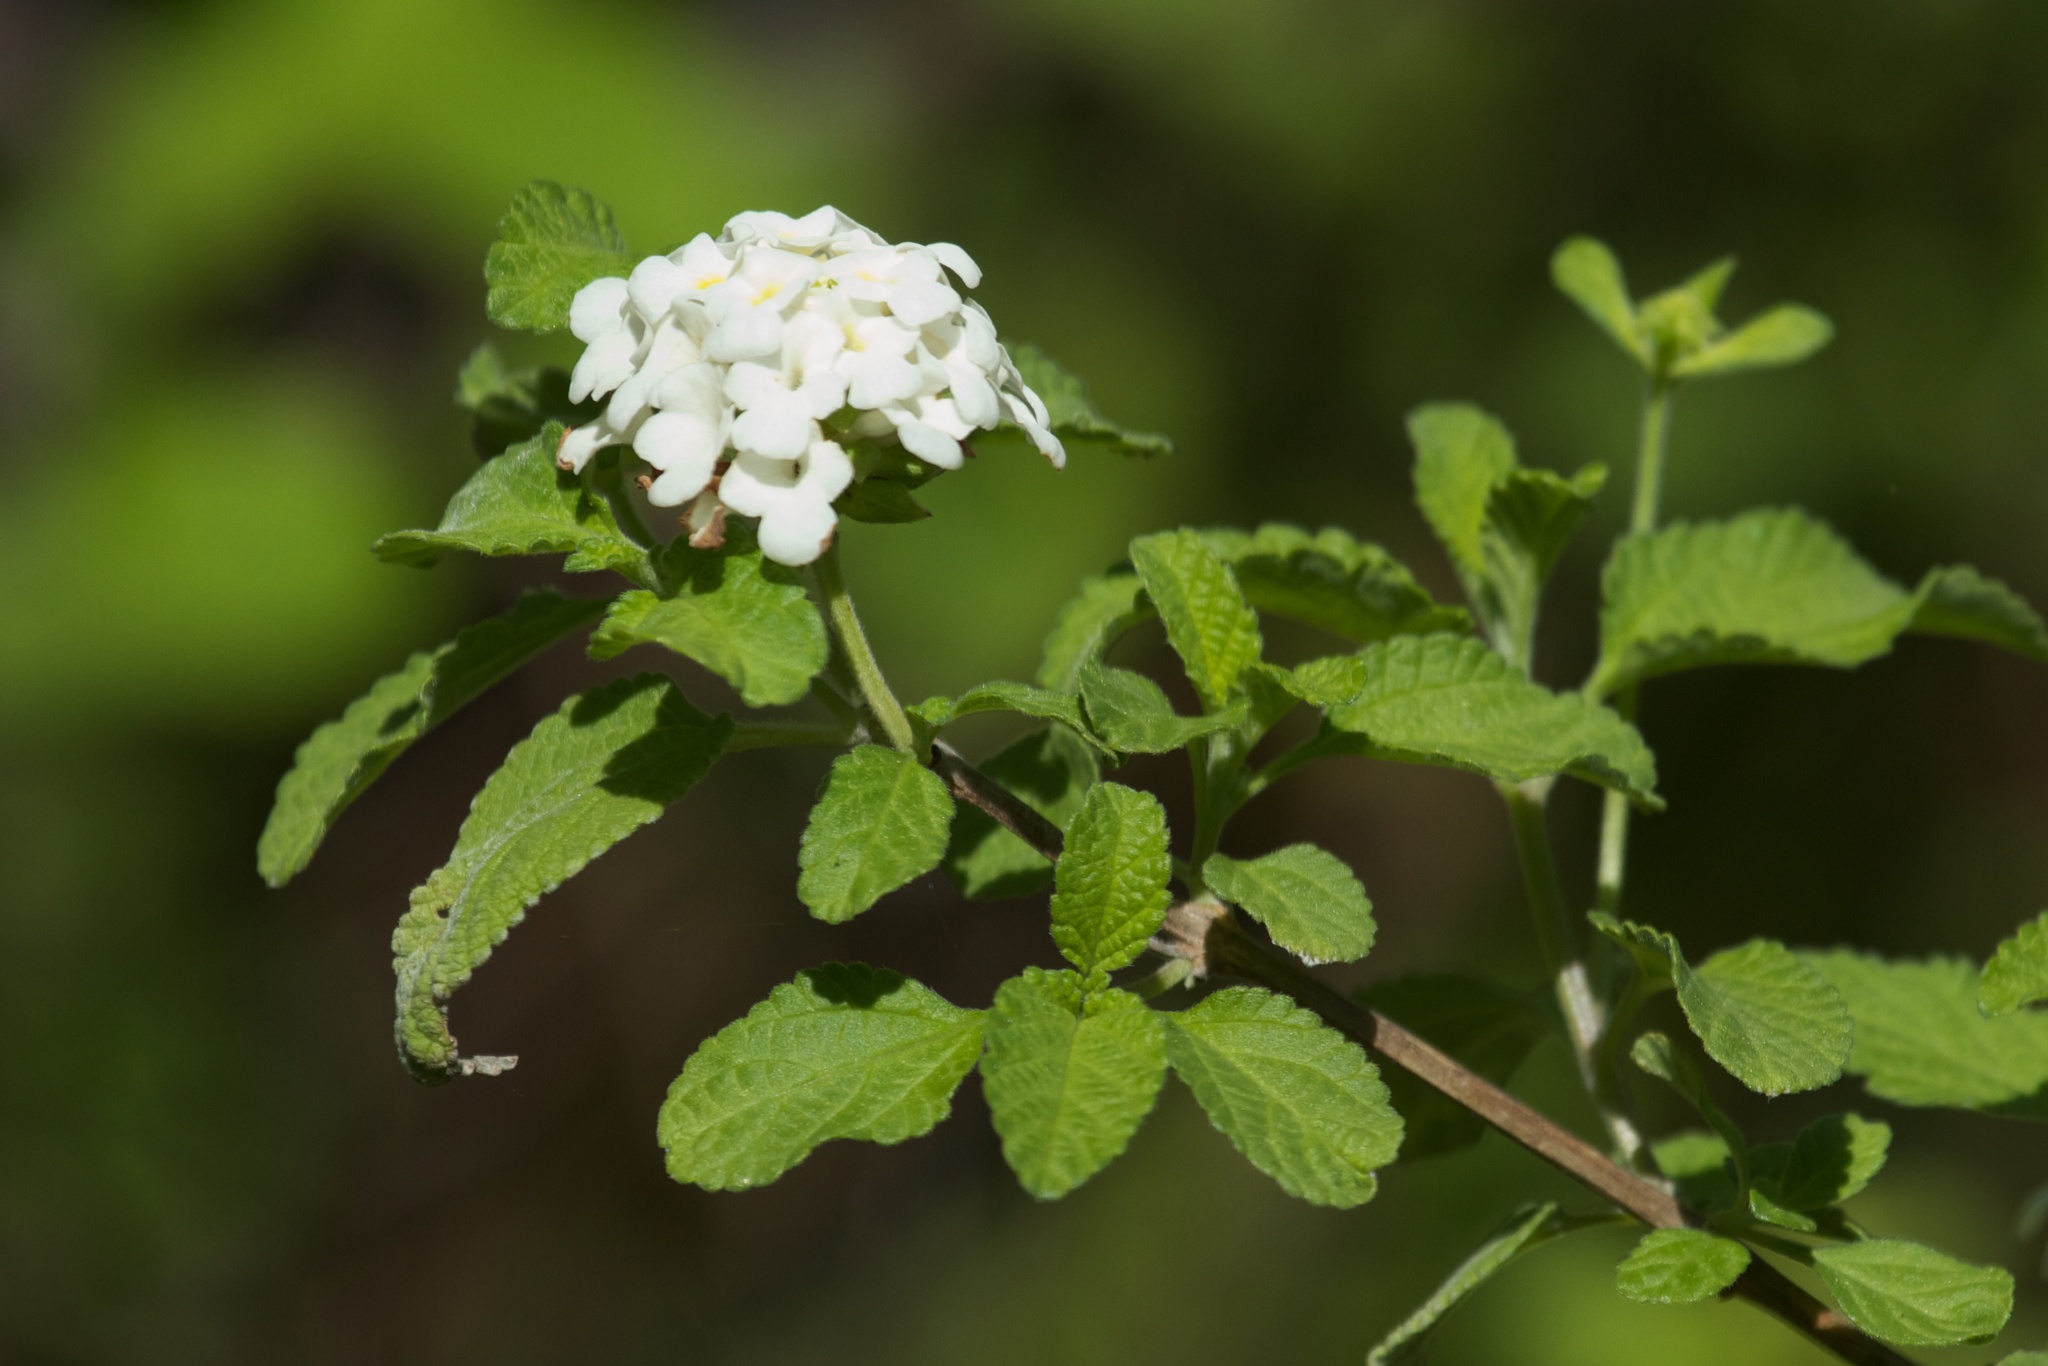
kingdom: Plantae
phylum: Tracheophyta
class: Magnoliopsida
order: Lamiales
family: Verbenaceae
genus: Lantana
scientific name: Lantana peduncularis
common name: Galapagos lantana
